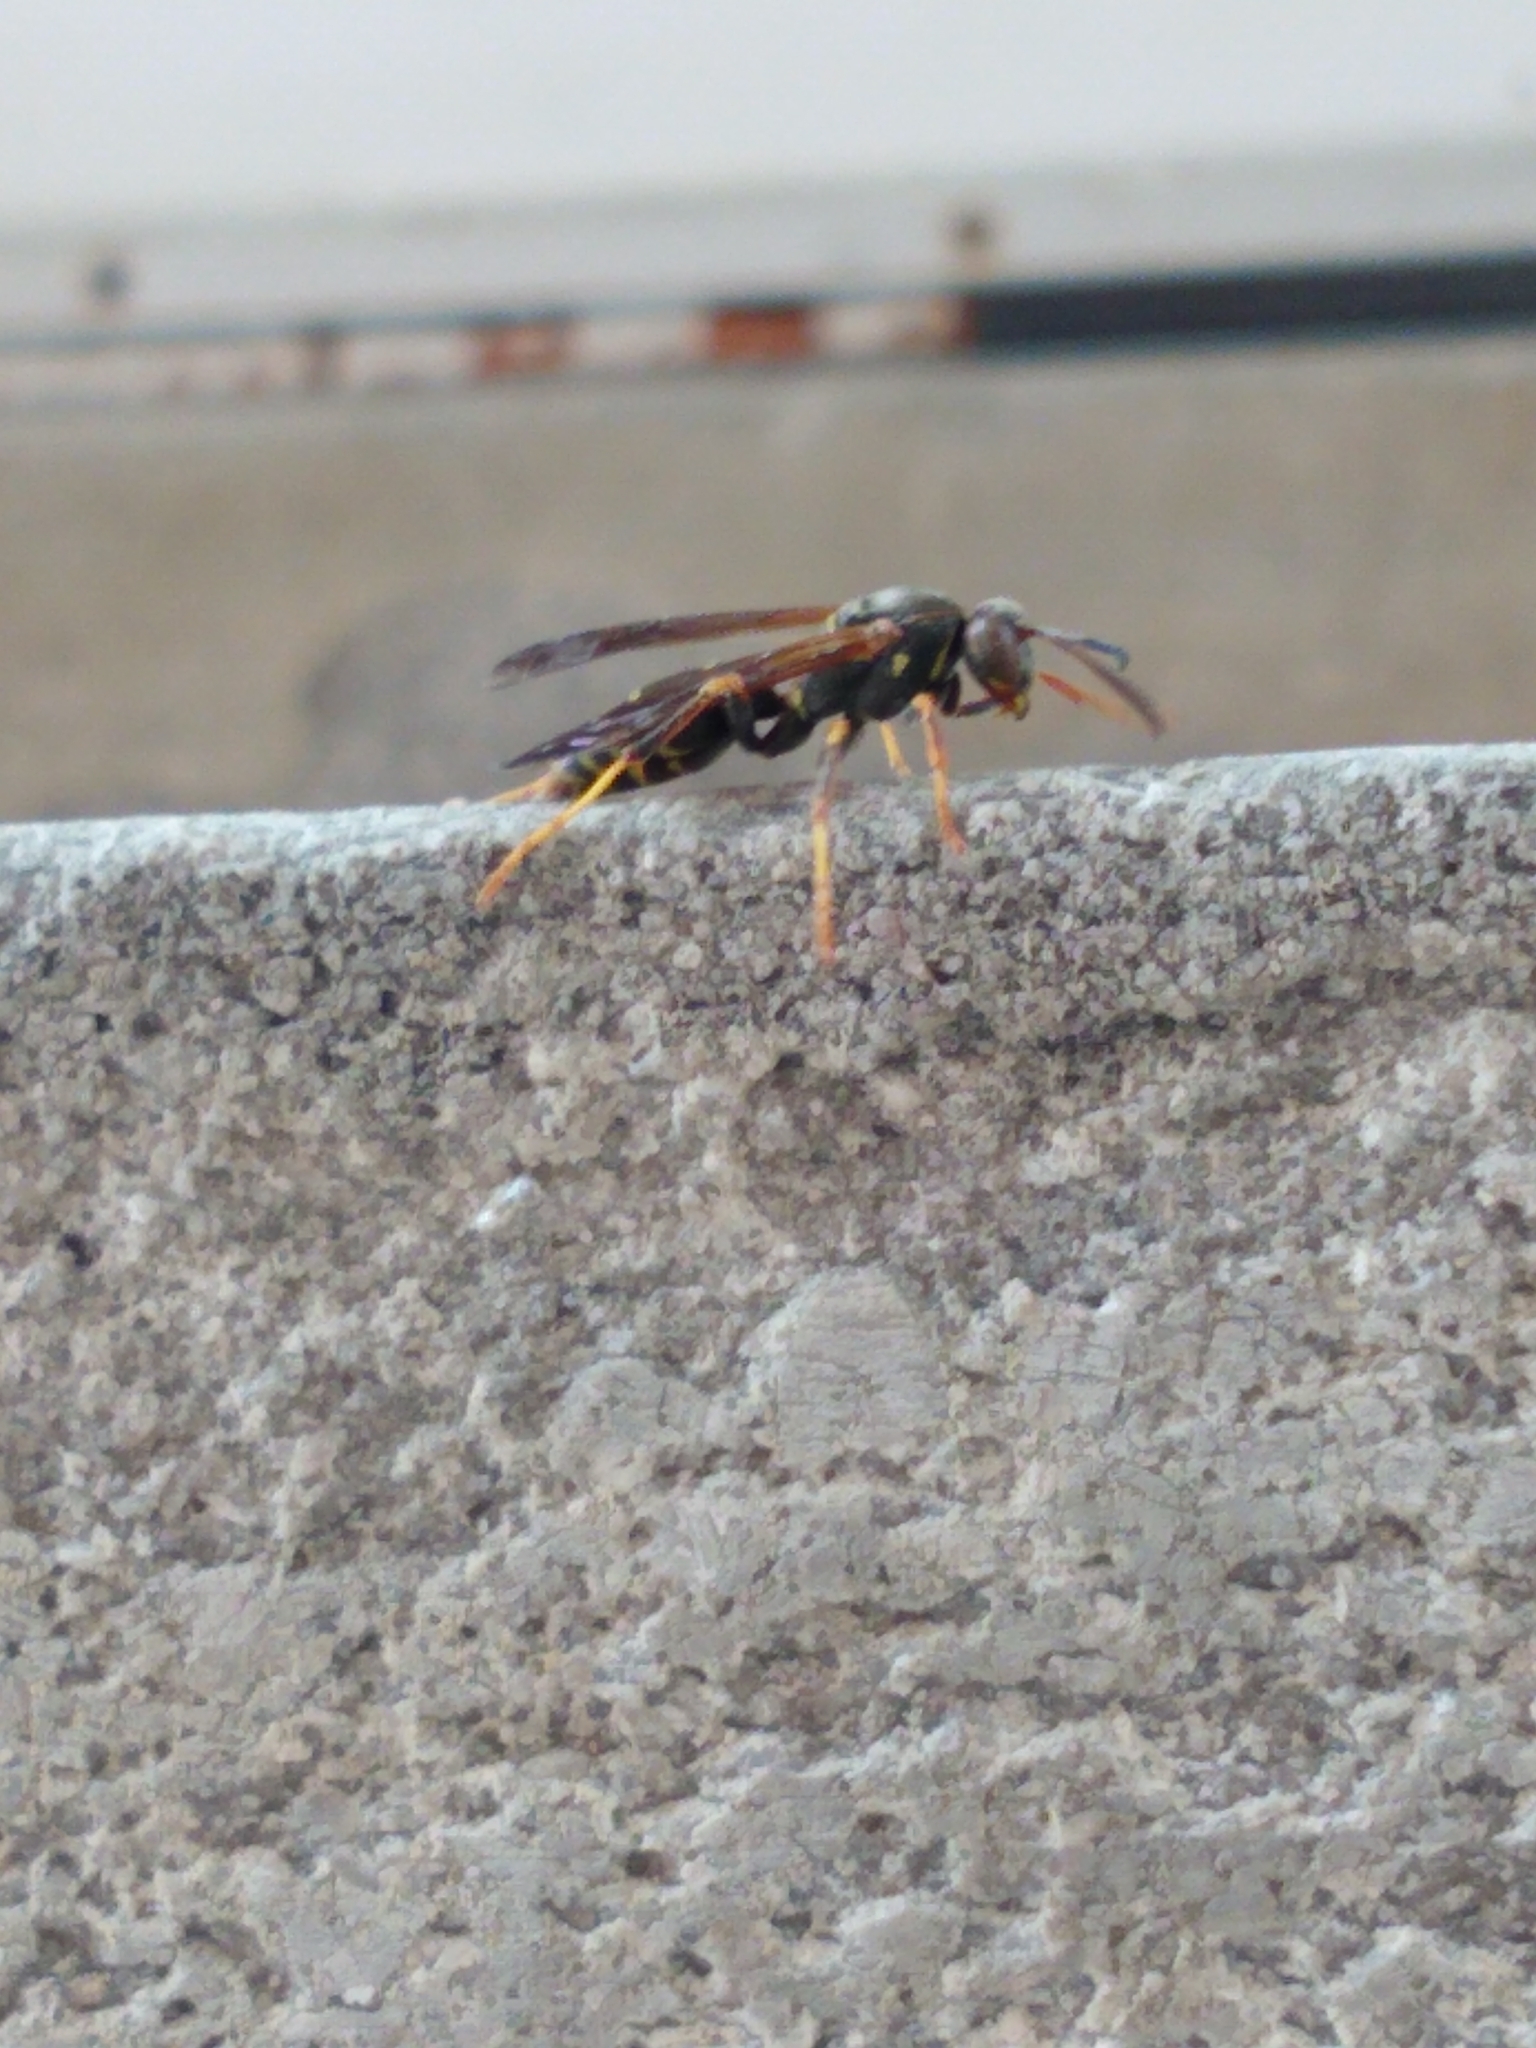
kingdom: Animalia
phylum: Arthropoda
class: Insecta
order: Hymenoptera
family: Eumenidae
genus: Polistes
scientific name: Polistes fuscatus
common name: Dark paper wasp
